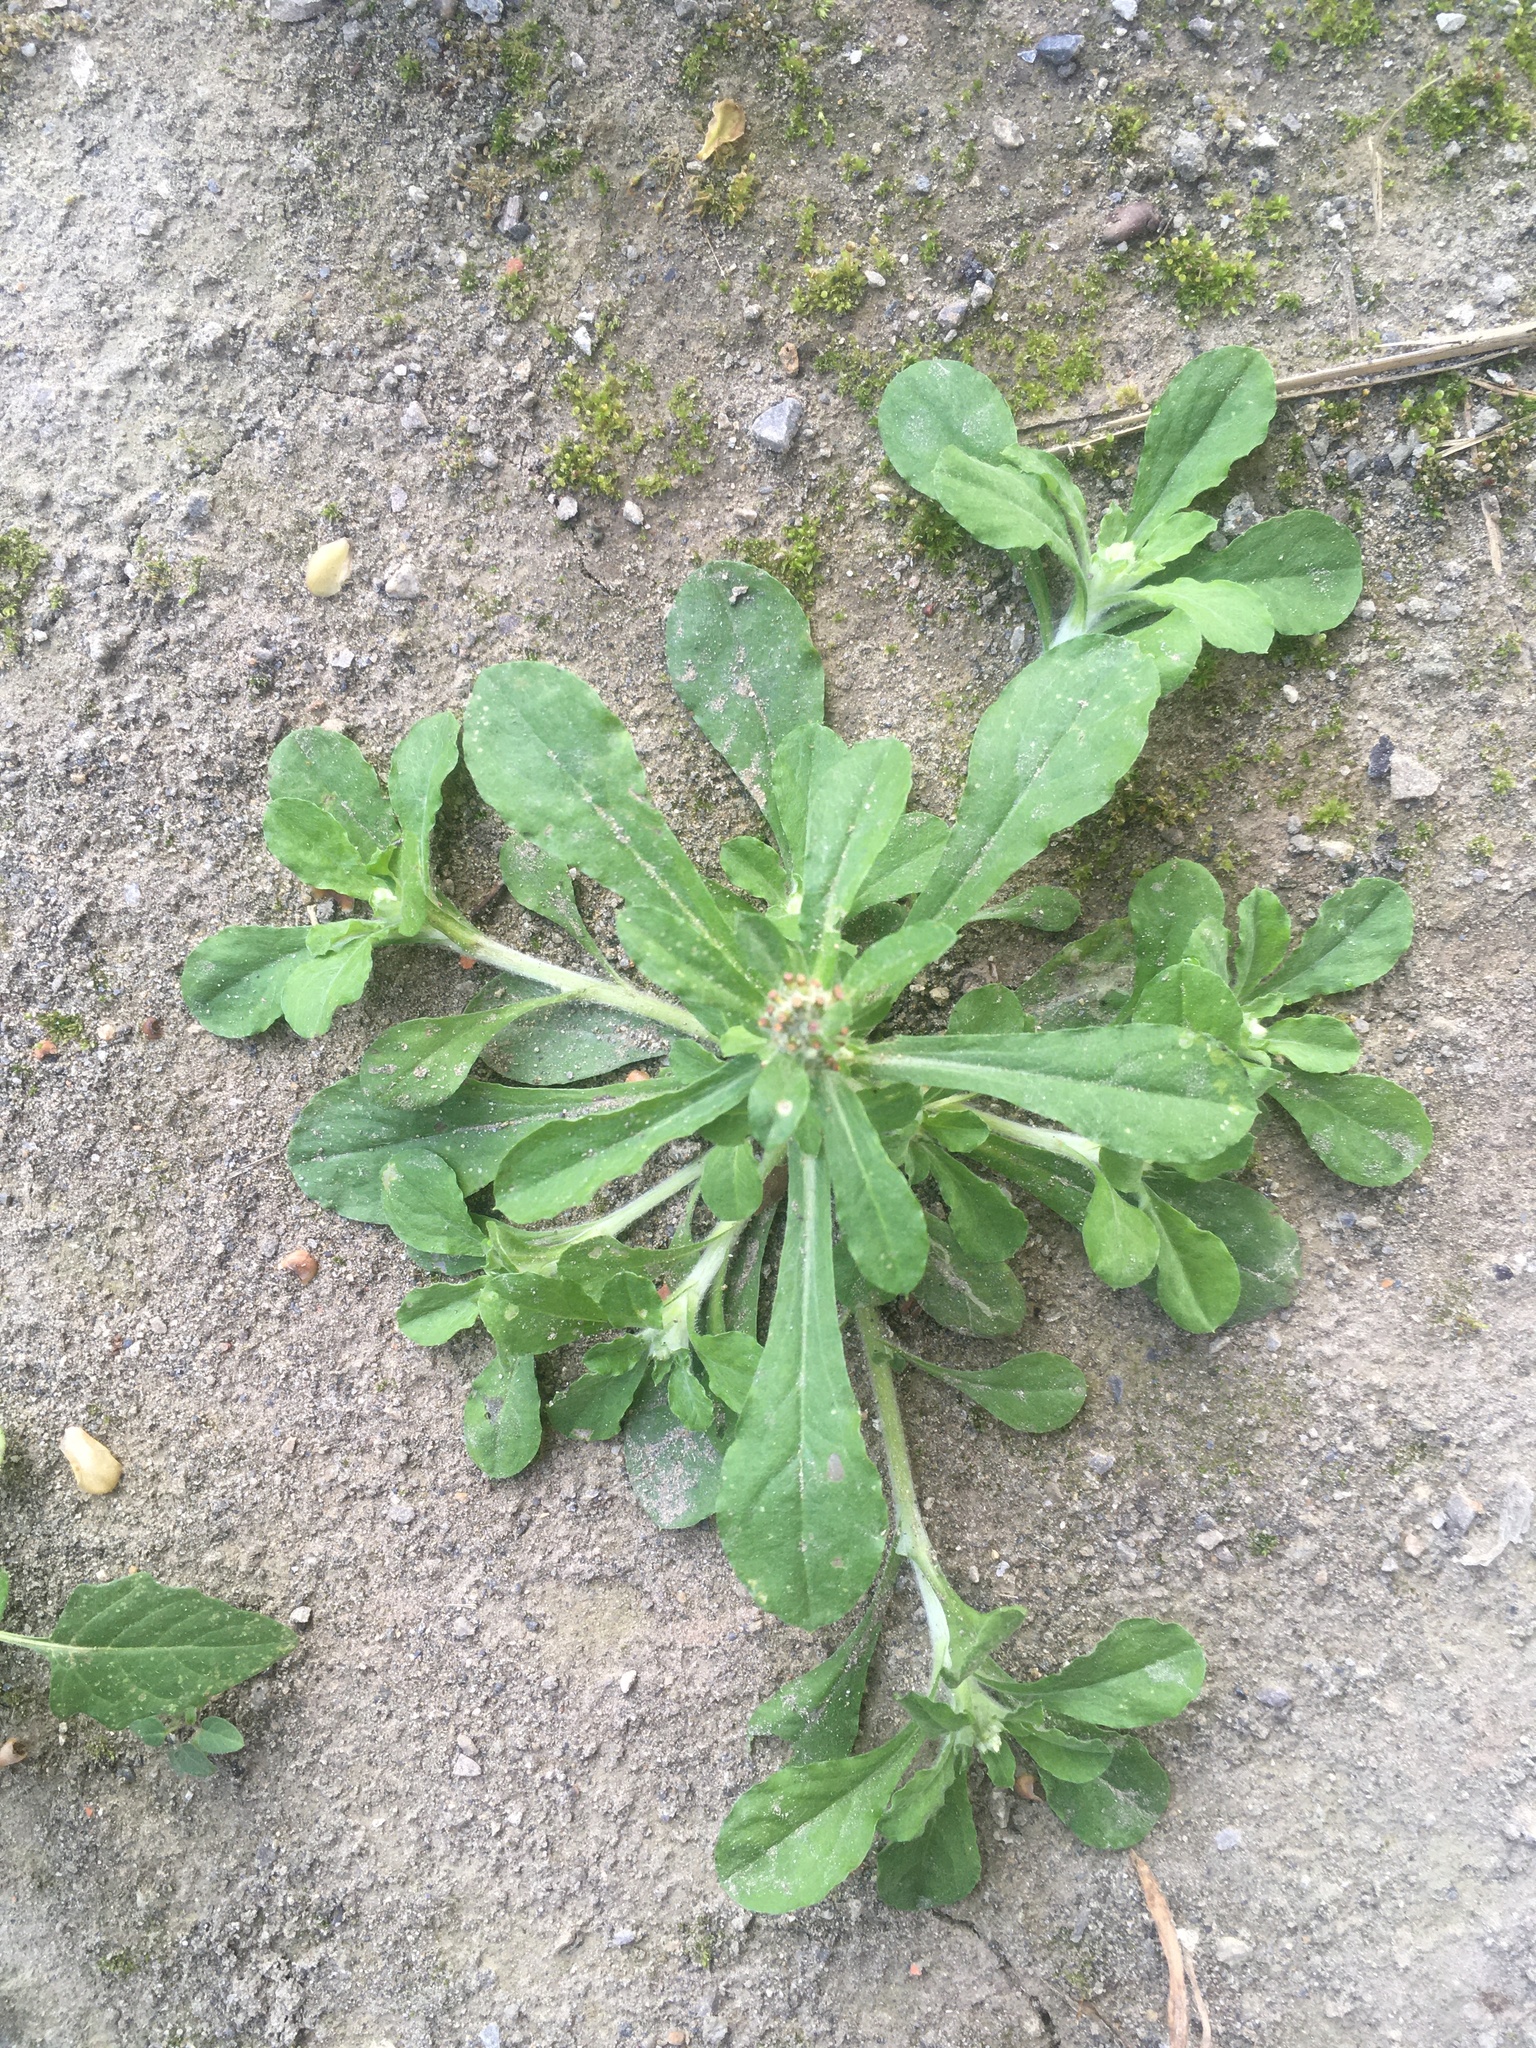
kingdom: Plantae
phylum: Tracheophyta
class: Magnoliopsida
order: Asterales
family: Asteraceae
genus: Gamochaeta
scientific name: Gamochaeta pensylvanica
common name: Pennsylvania everlasting
